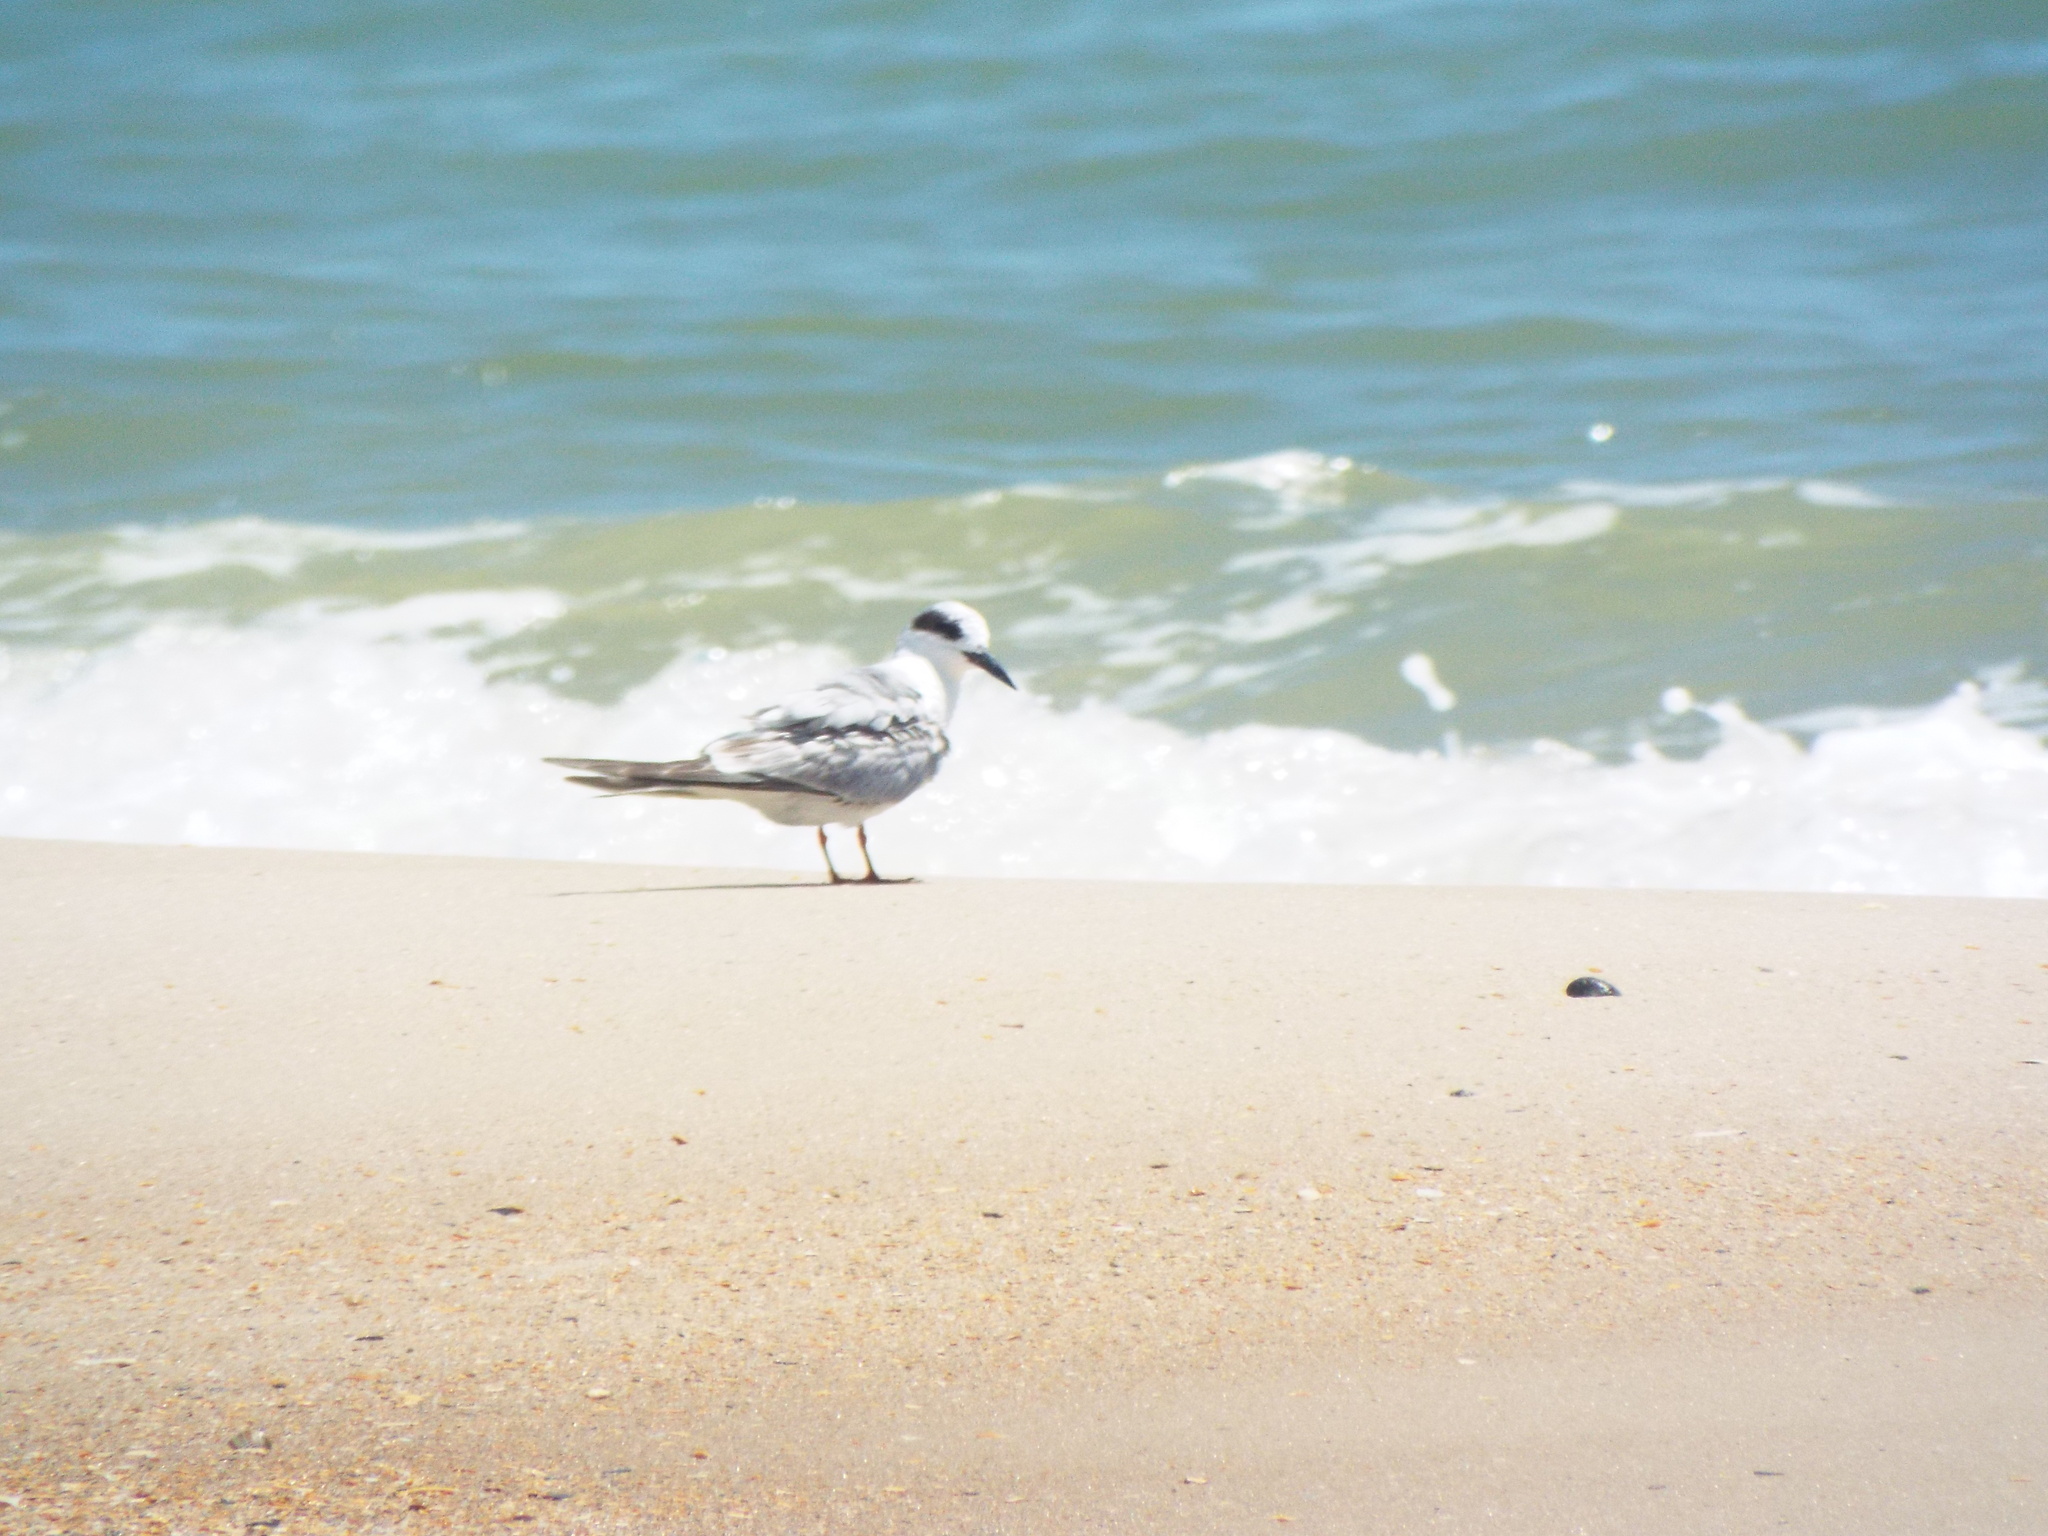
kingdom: Animalia
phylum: Chordata
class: Aves
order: Charadriiformes
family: Laridae
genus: Sterna
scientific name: Sterna forsteri
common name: Forster's tern
